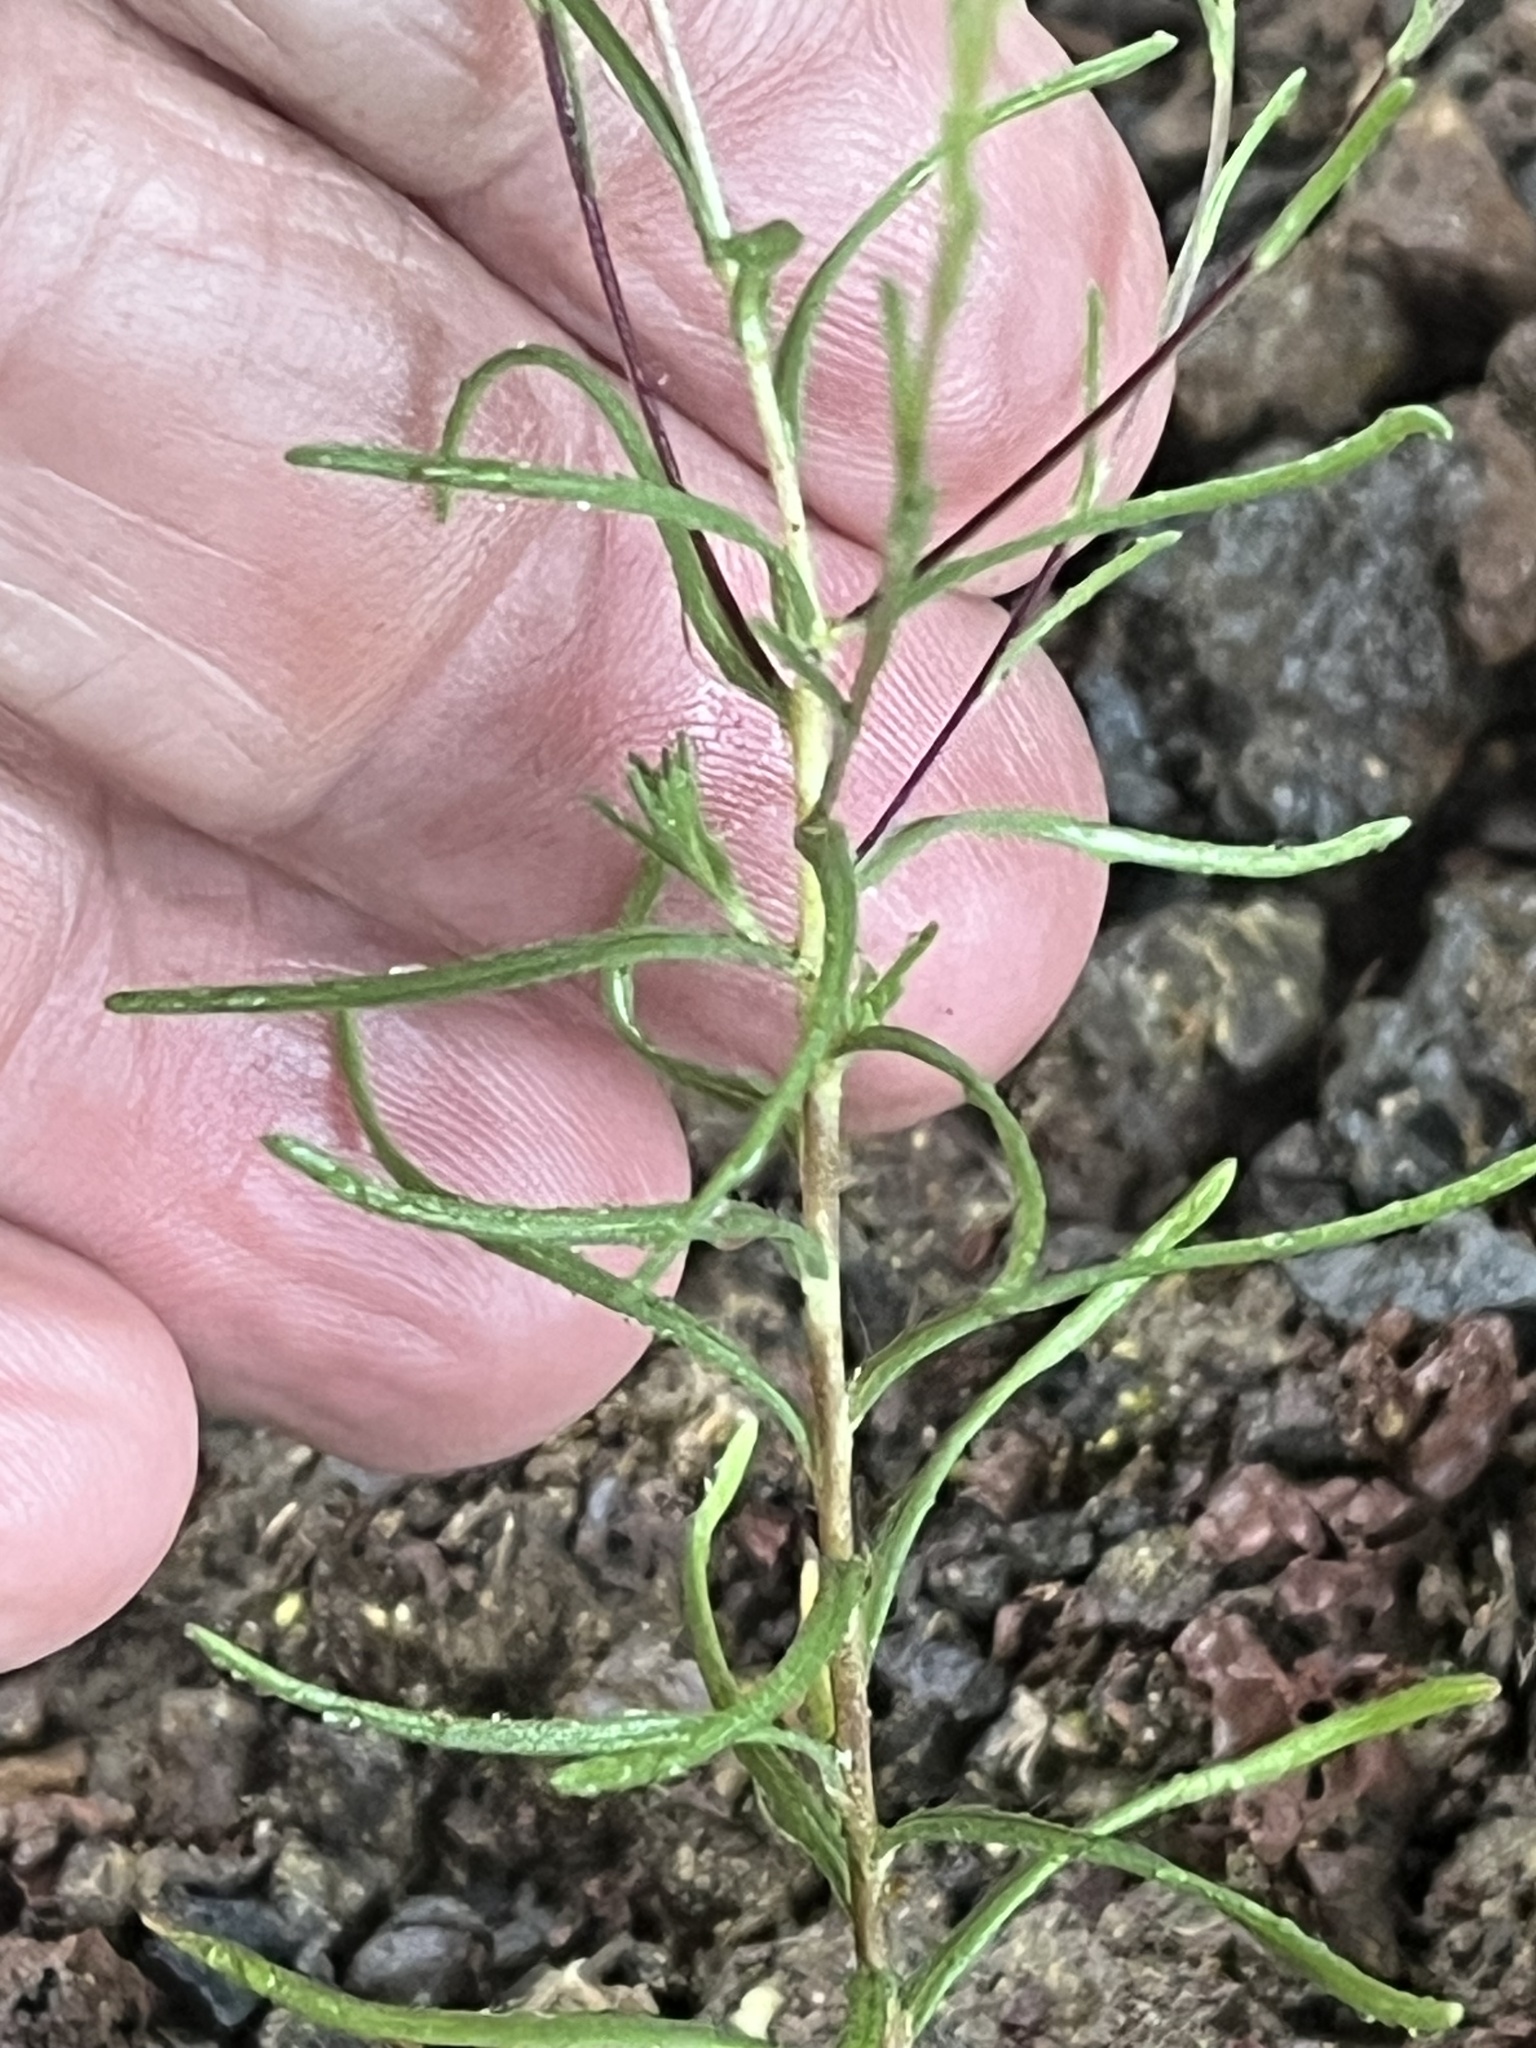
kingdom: Plantae
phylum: Tracheophyta
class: Magnoliopsida
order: Asterales
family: Asteraceae
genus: Blepharipappus
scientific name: Blepharipappus scaber
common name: Rough blepharipappus
